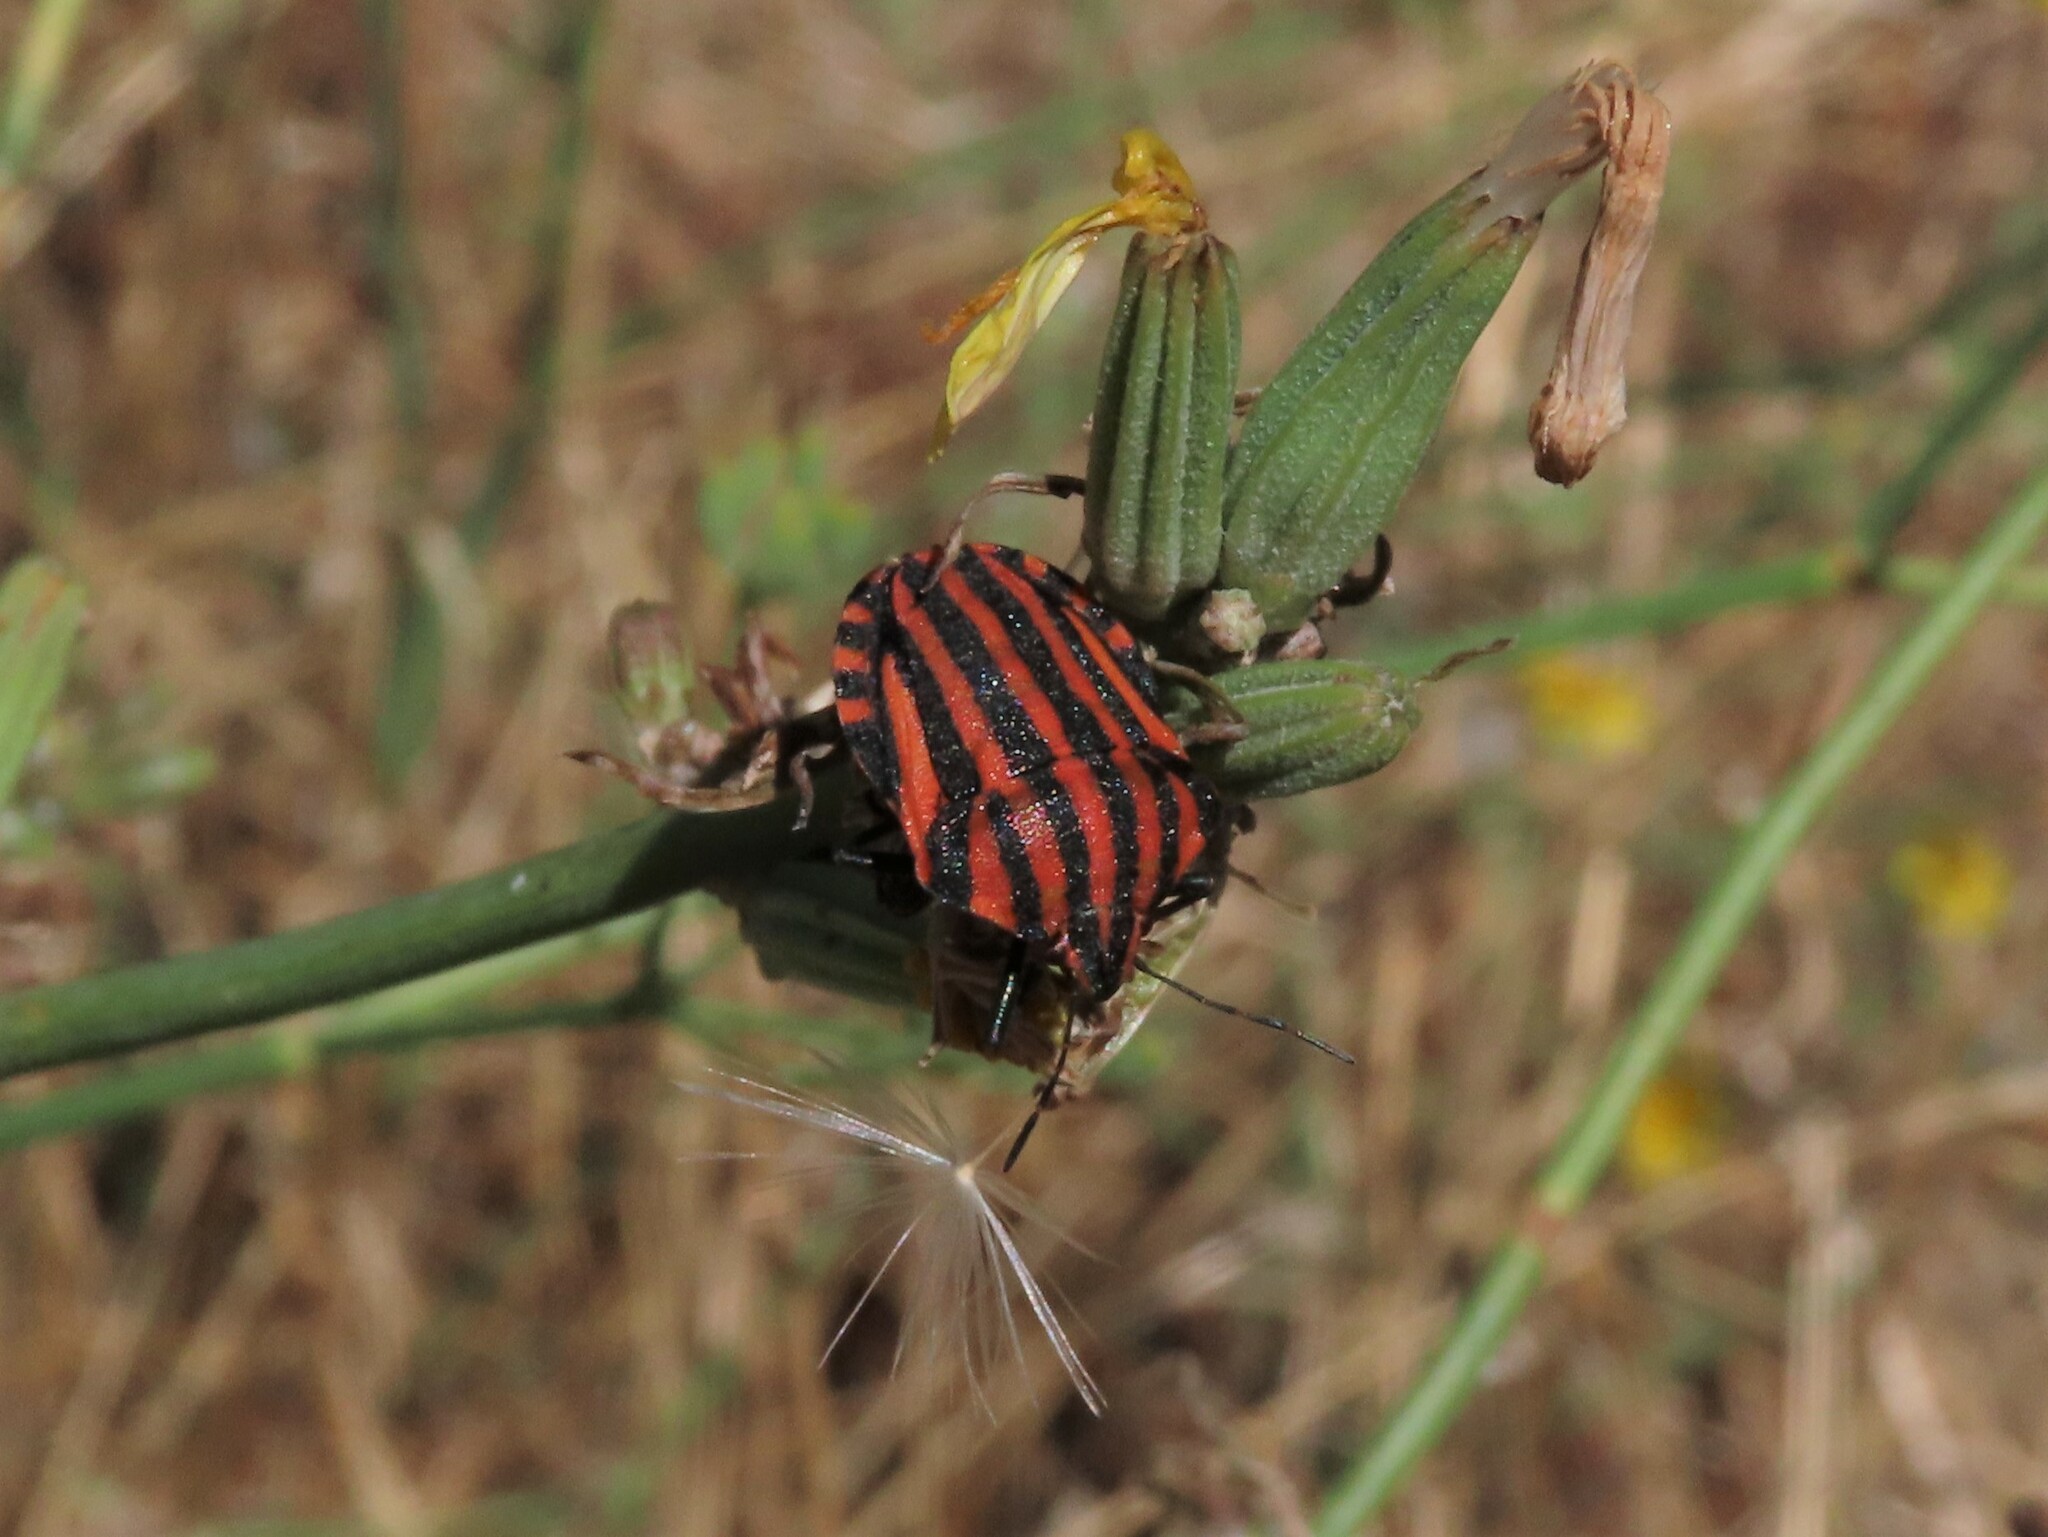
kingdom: Animalia
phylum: Arthropoda
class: Insecta
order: Hemiptera
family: Pentatomidae
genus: Graphosoma
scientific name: Graphosoma italicum
